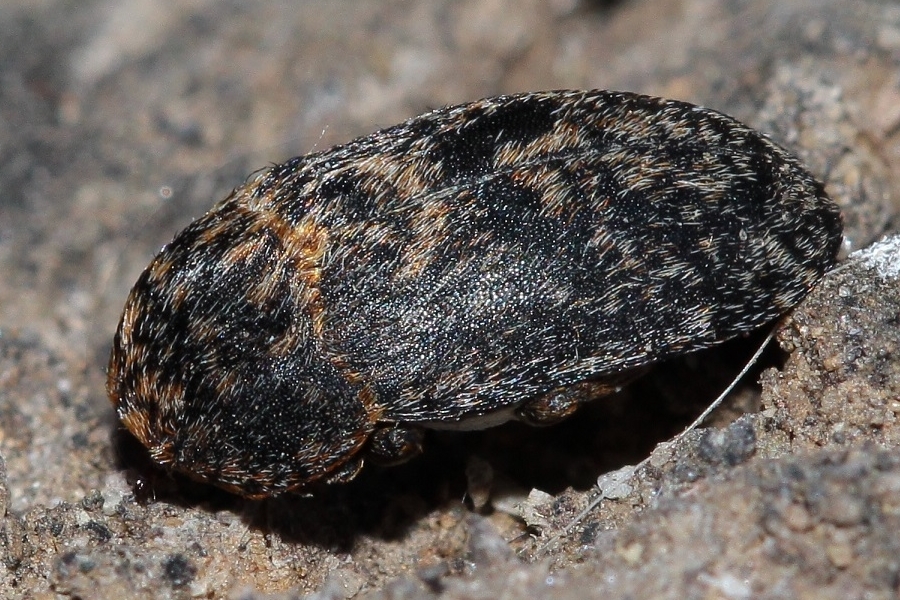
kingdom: Animalia
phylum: Arthropoda
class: Insecta
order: Coleoptera
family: Dermestidae
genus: Dermestes
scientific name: Dermestes gyllenhalii
